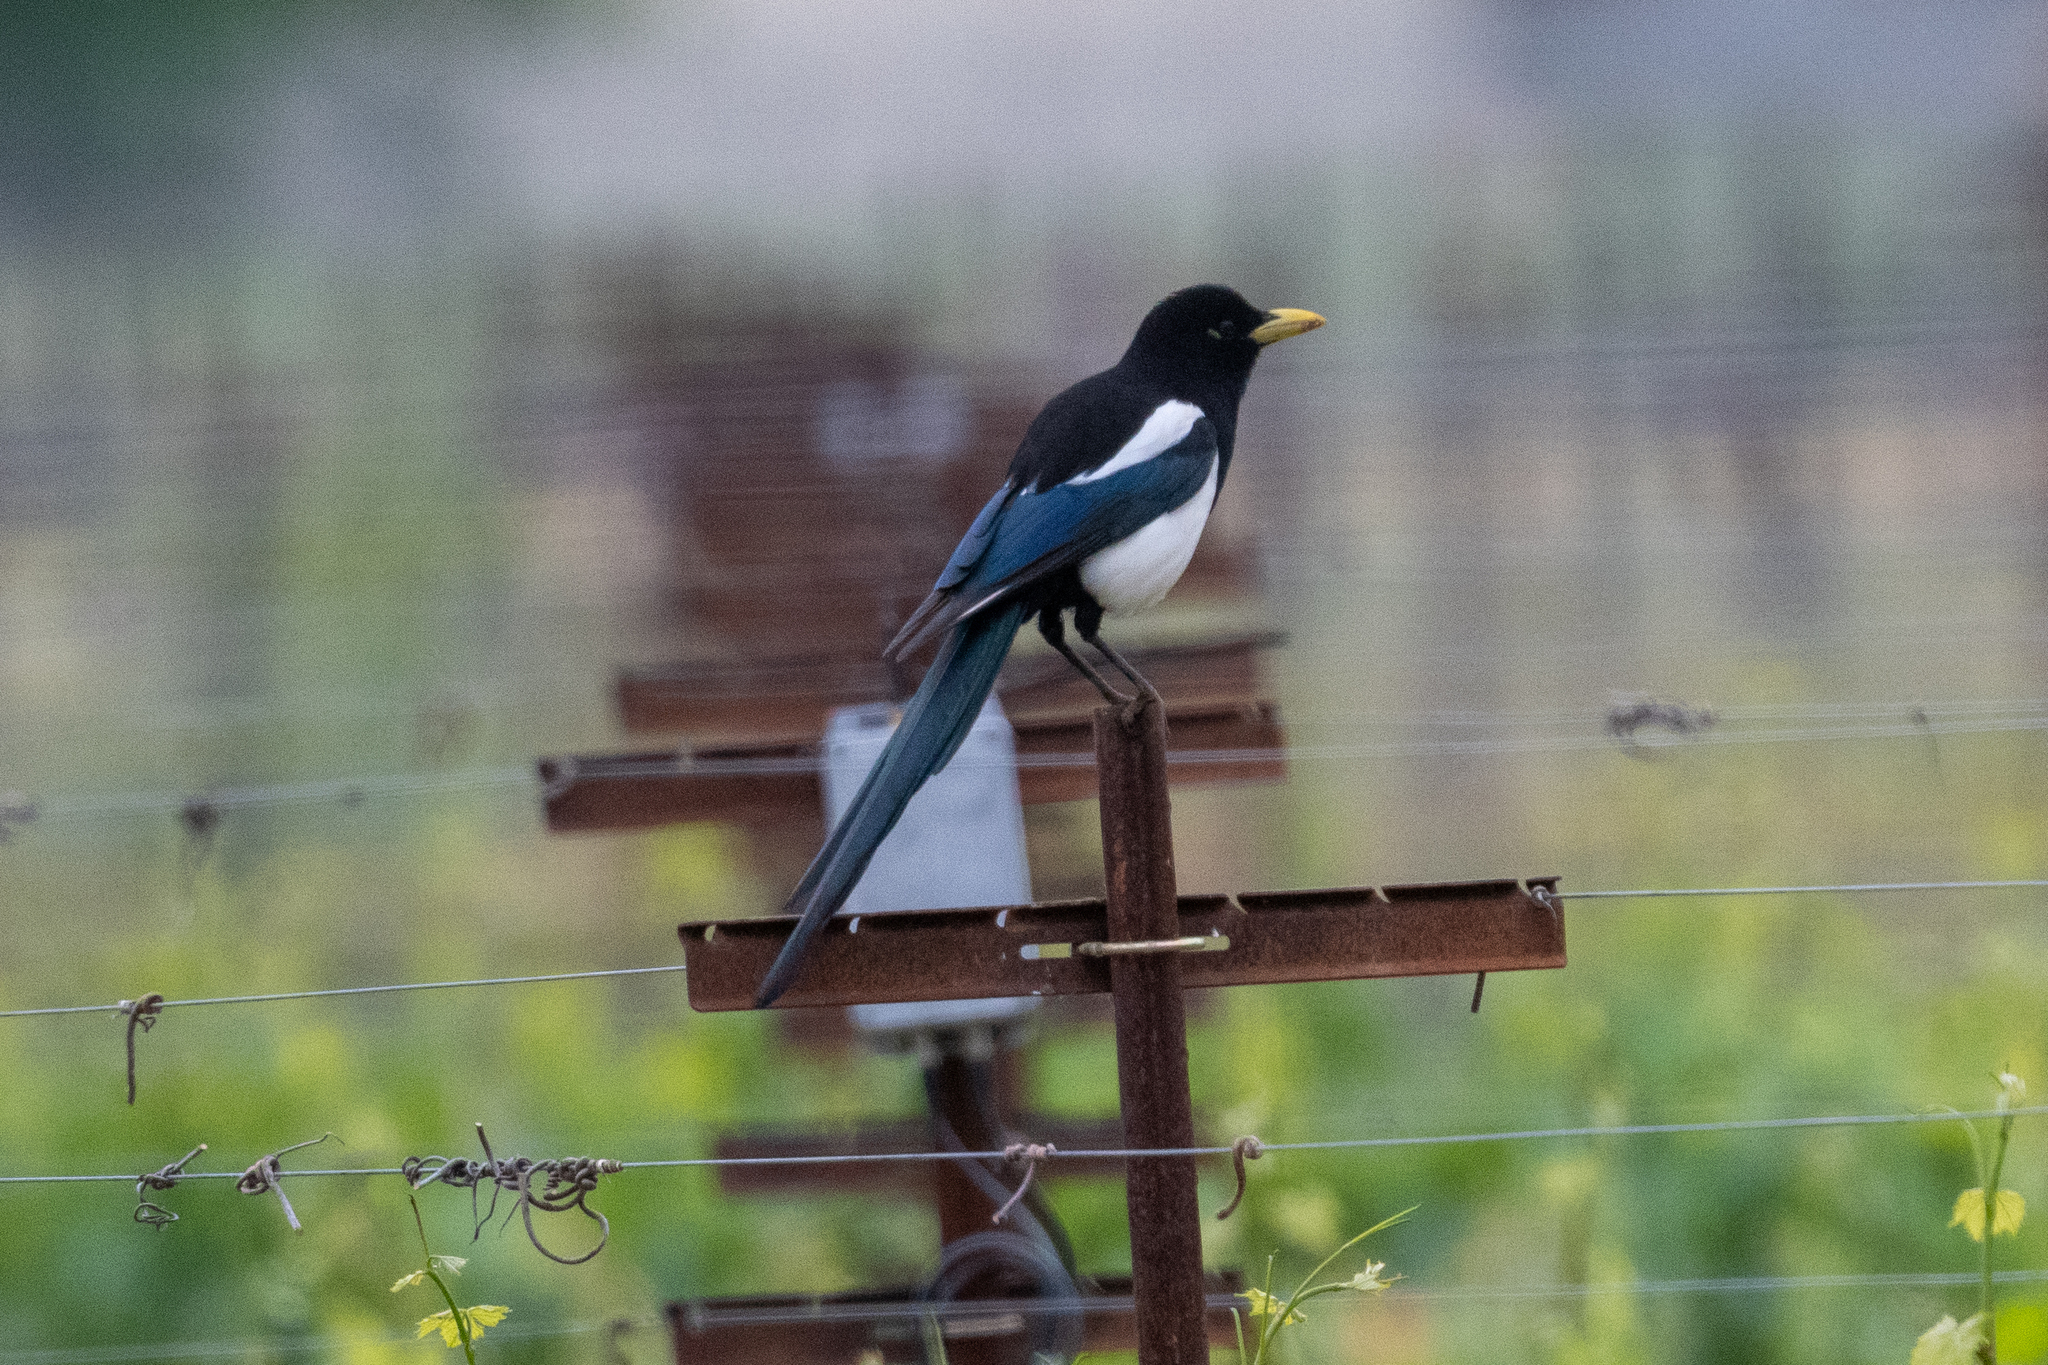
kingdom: Animalia
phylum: Chordata
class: Aves
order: Passeriformes
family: Corvidae
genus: Pica
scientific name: Pica nuttalli
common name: Yellow-billed magpie
